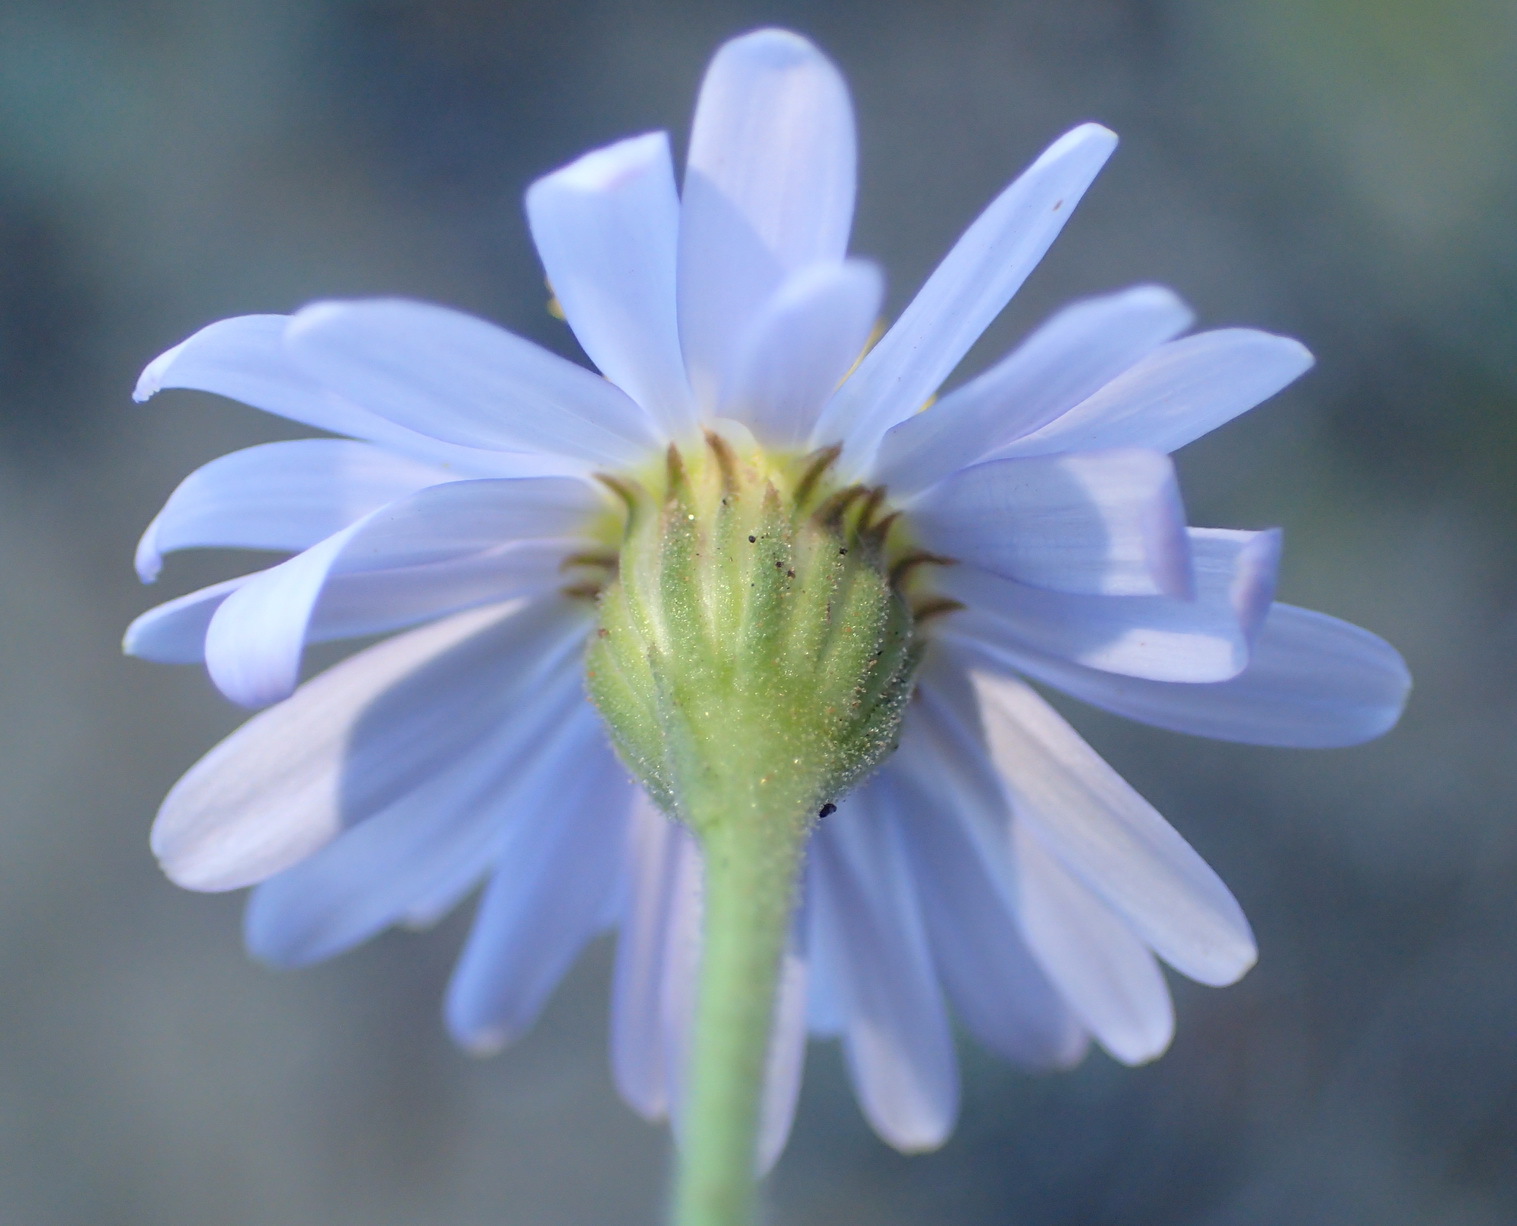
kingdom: Plantae
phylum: Tracheophyta
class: Magnoliopsida
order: Asterales
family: Asteraceae
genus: Garuleum
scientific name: Garuleum bipinnatum
